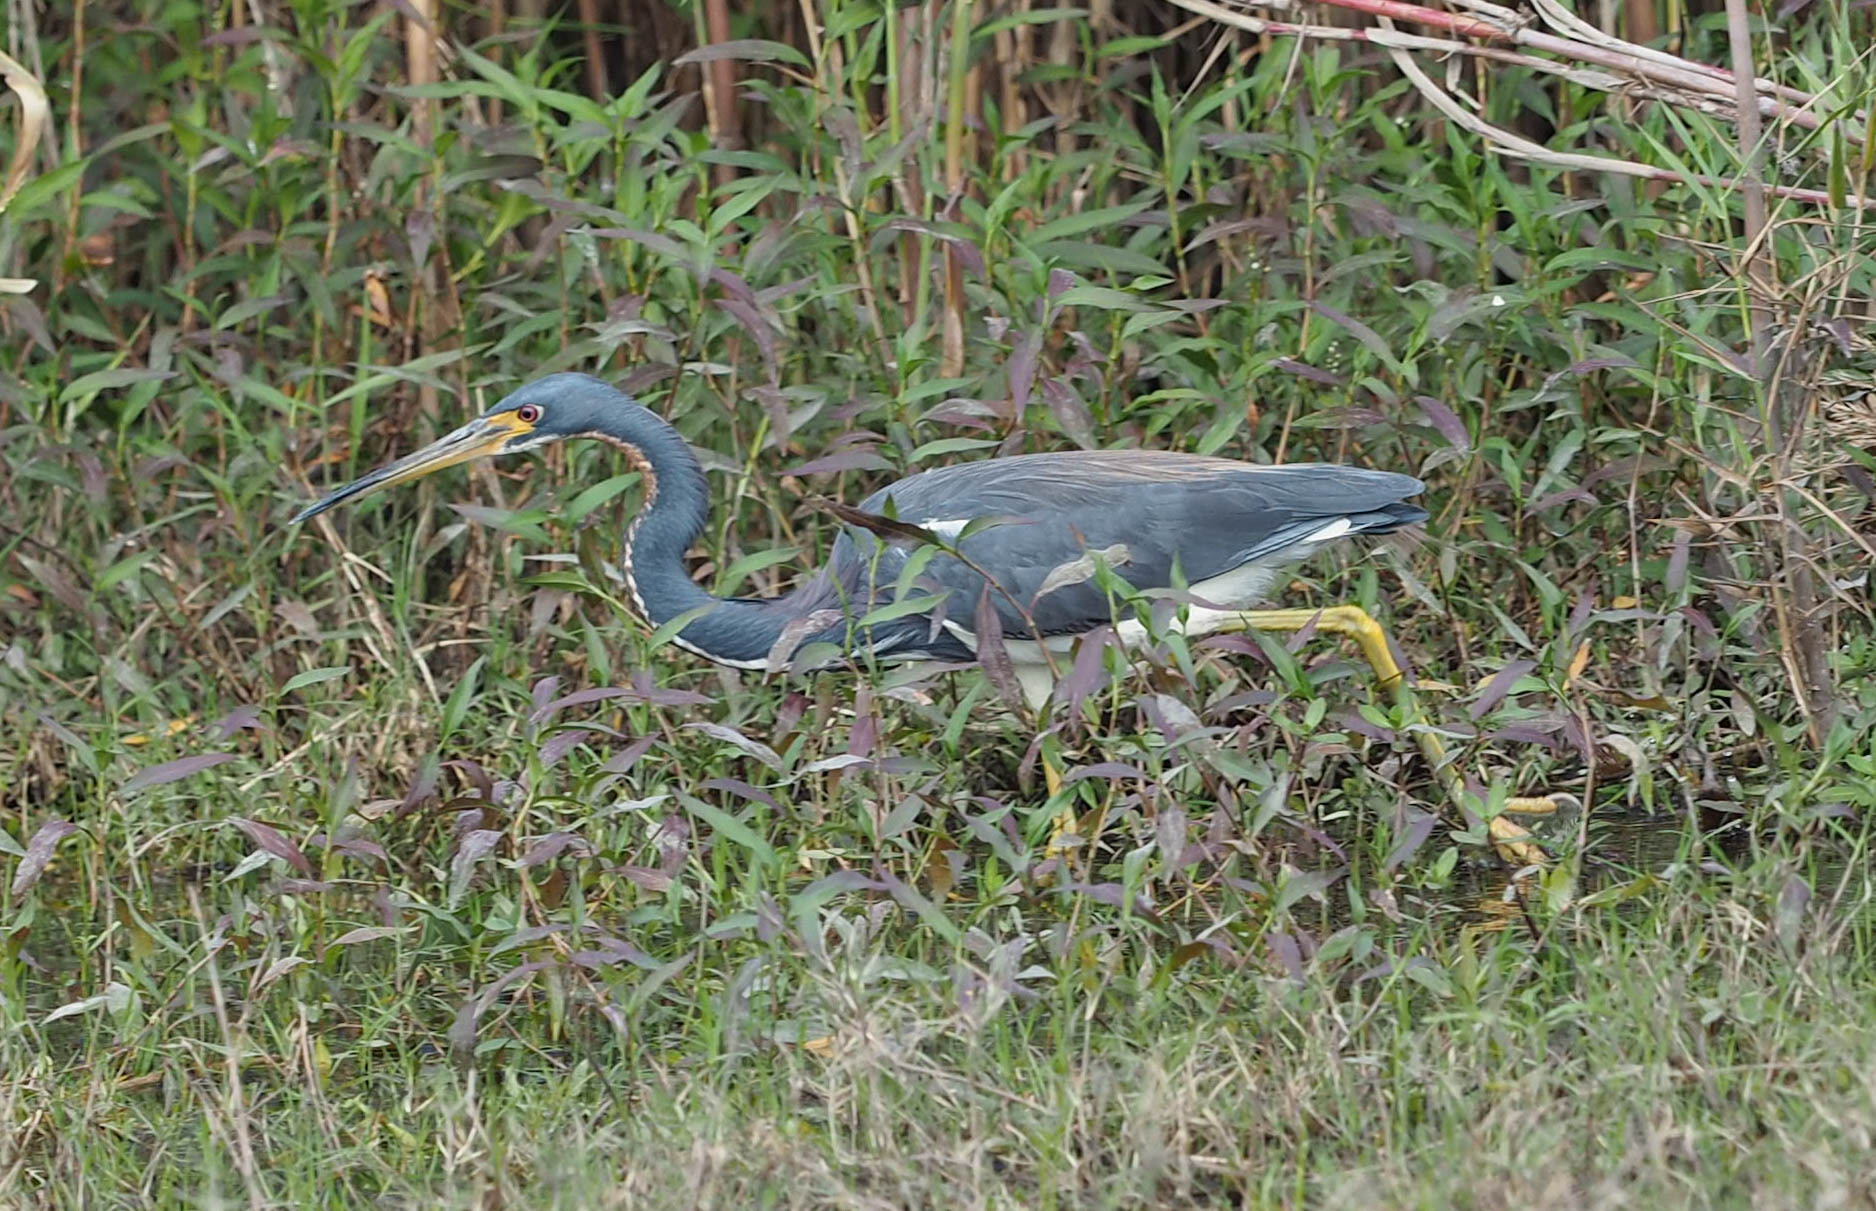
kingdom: Animalia
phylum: Chordata
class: Aves
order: Pelecaniformes
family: Ardeidae
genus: Egretta
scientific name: Egretta tricolor
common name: Tricolored heron
